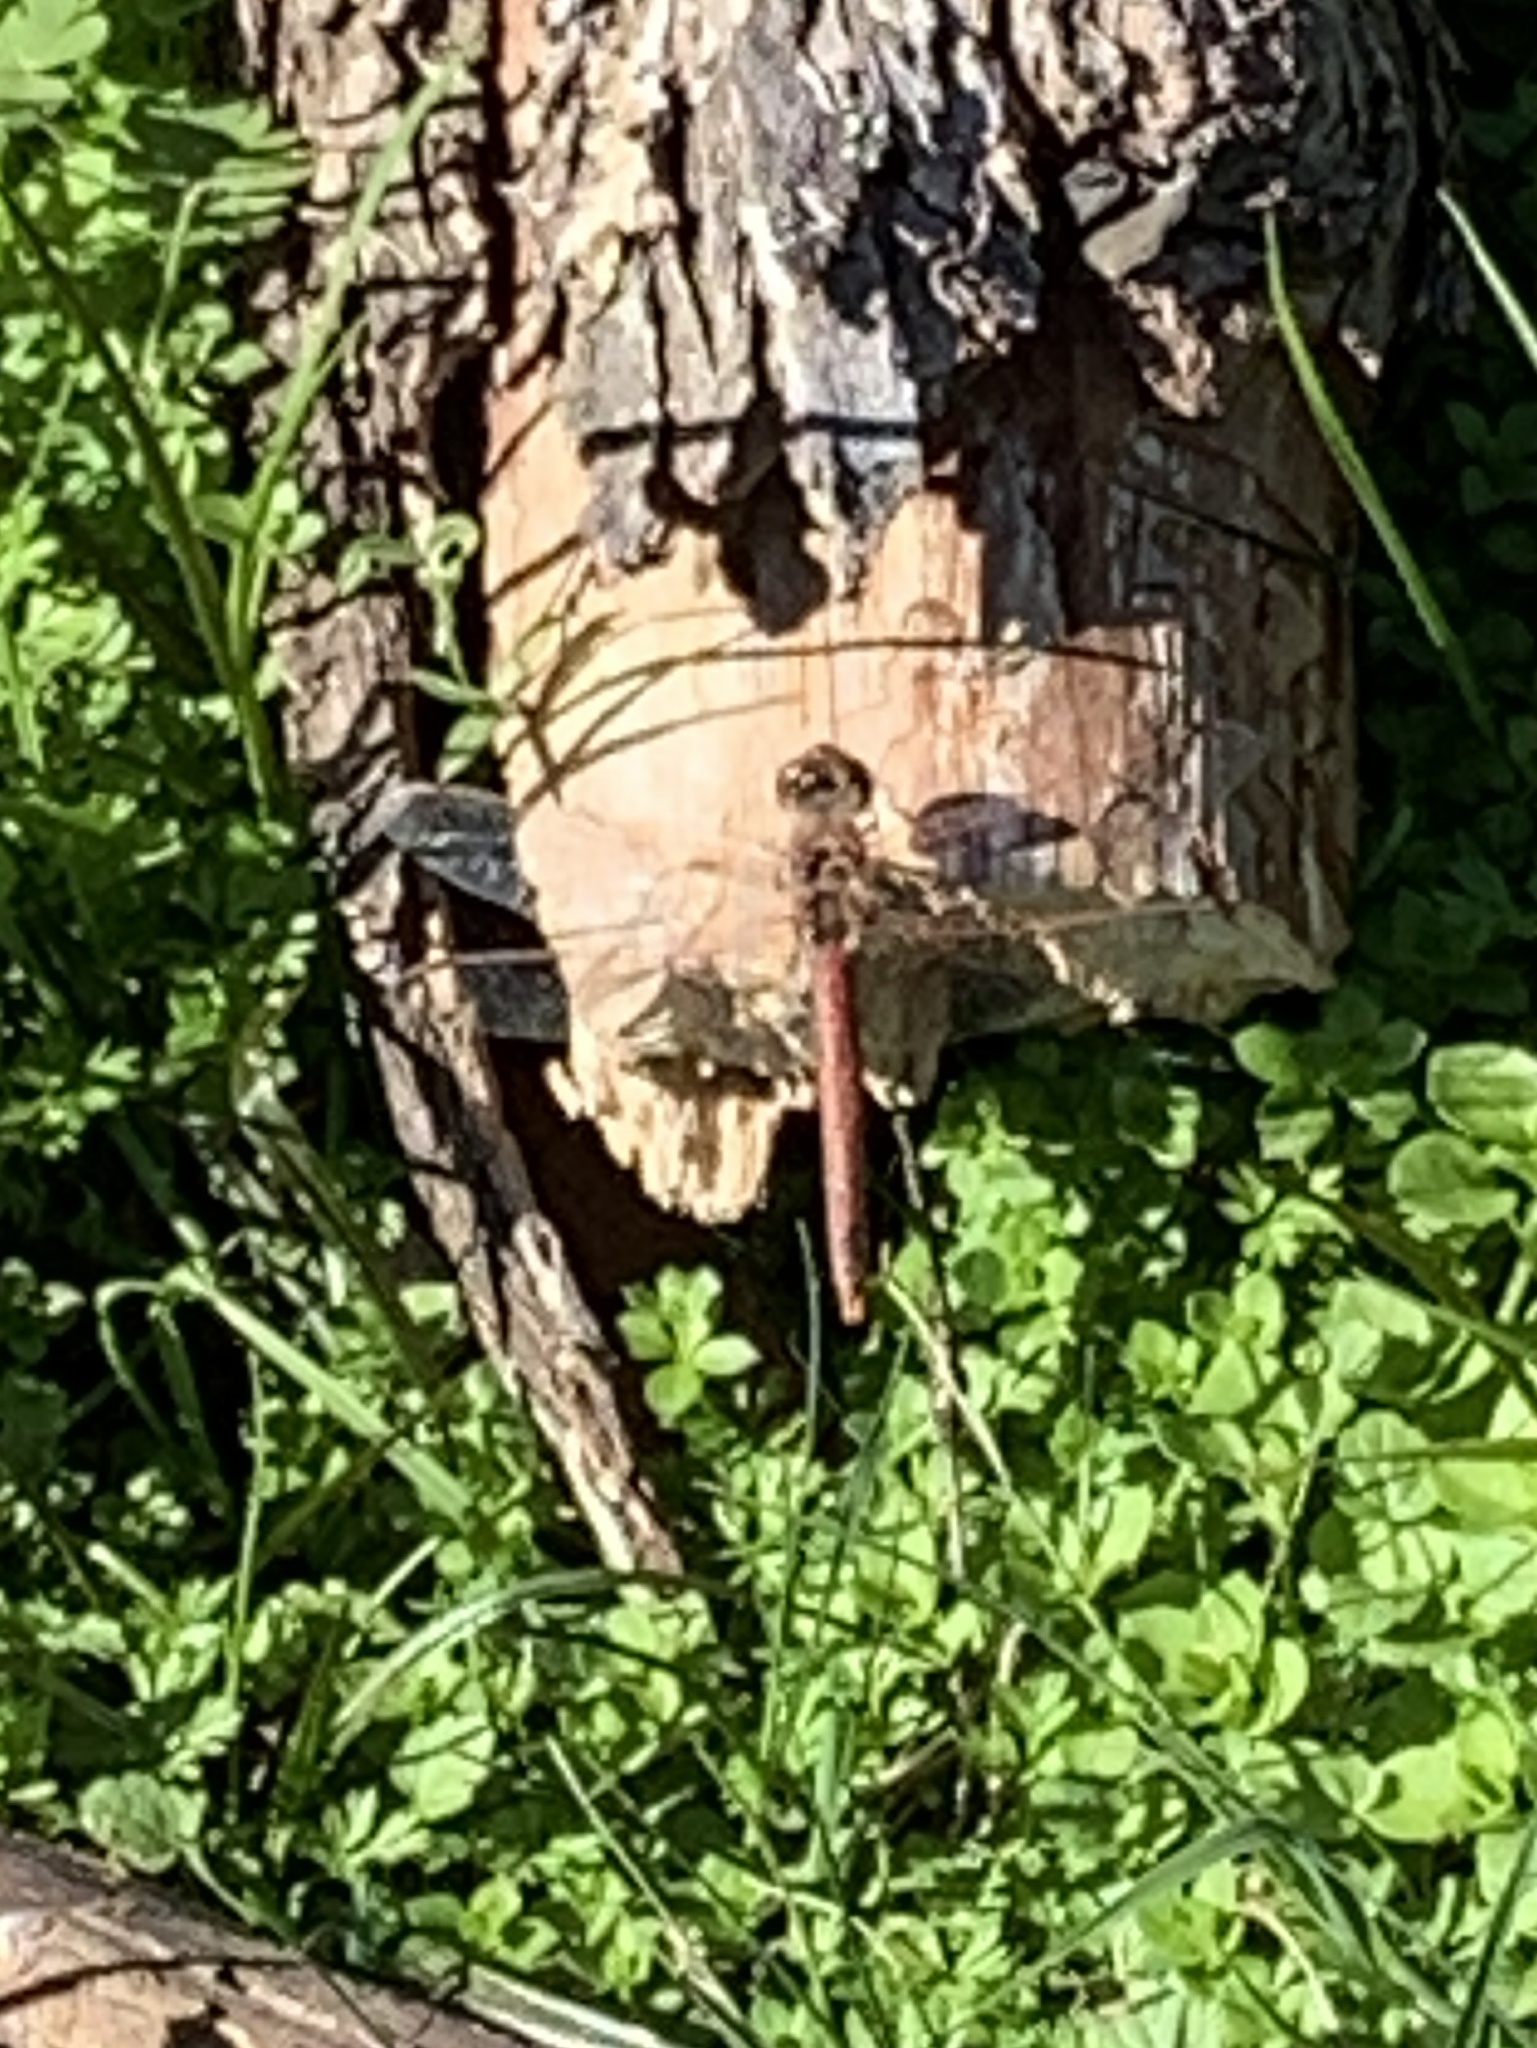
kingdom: Animalia
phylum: Arthropoda
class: Insecta
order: Odonata
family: Libellulidae
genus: Sympetrum
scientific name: Sympetrum corruptum
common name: Variegated meadowhawk
